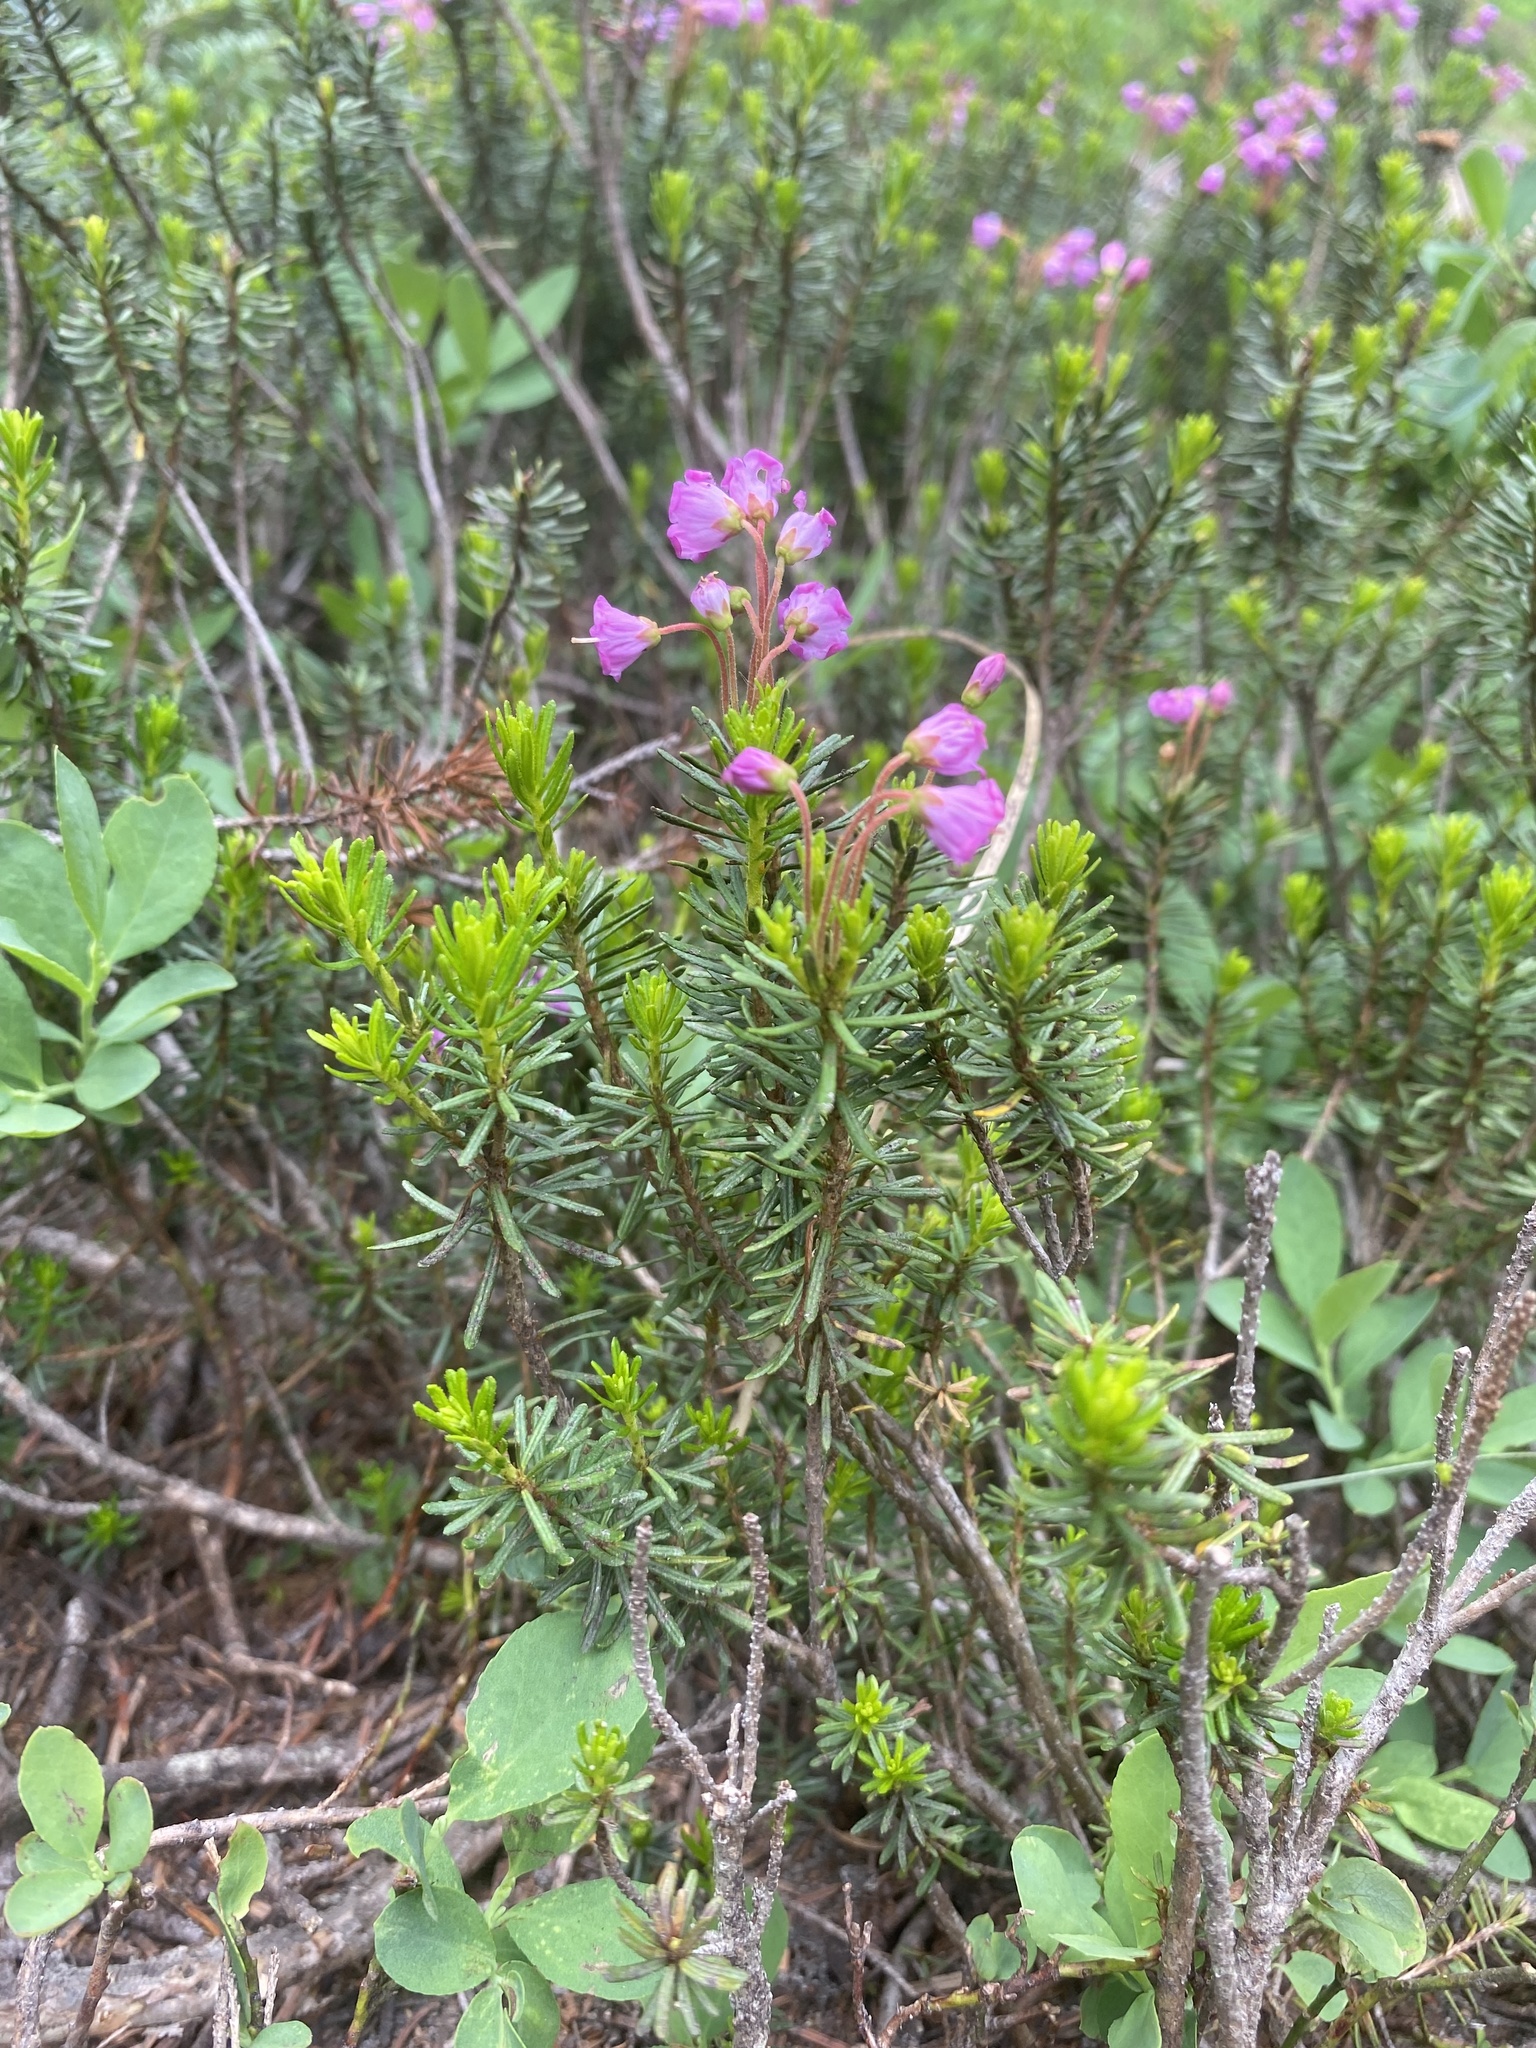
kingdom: Plantae
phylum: Tracheophyta
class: Magnoliopsida
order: Ericales
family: Ericaceae
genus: Phyllodoce
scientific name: Phyllodoce empetriformis
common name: Pink mountain heather
